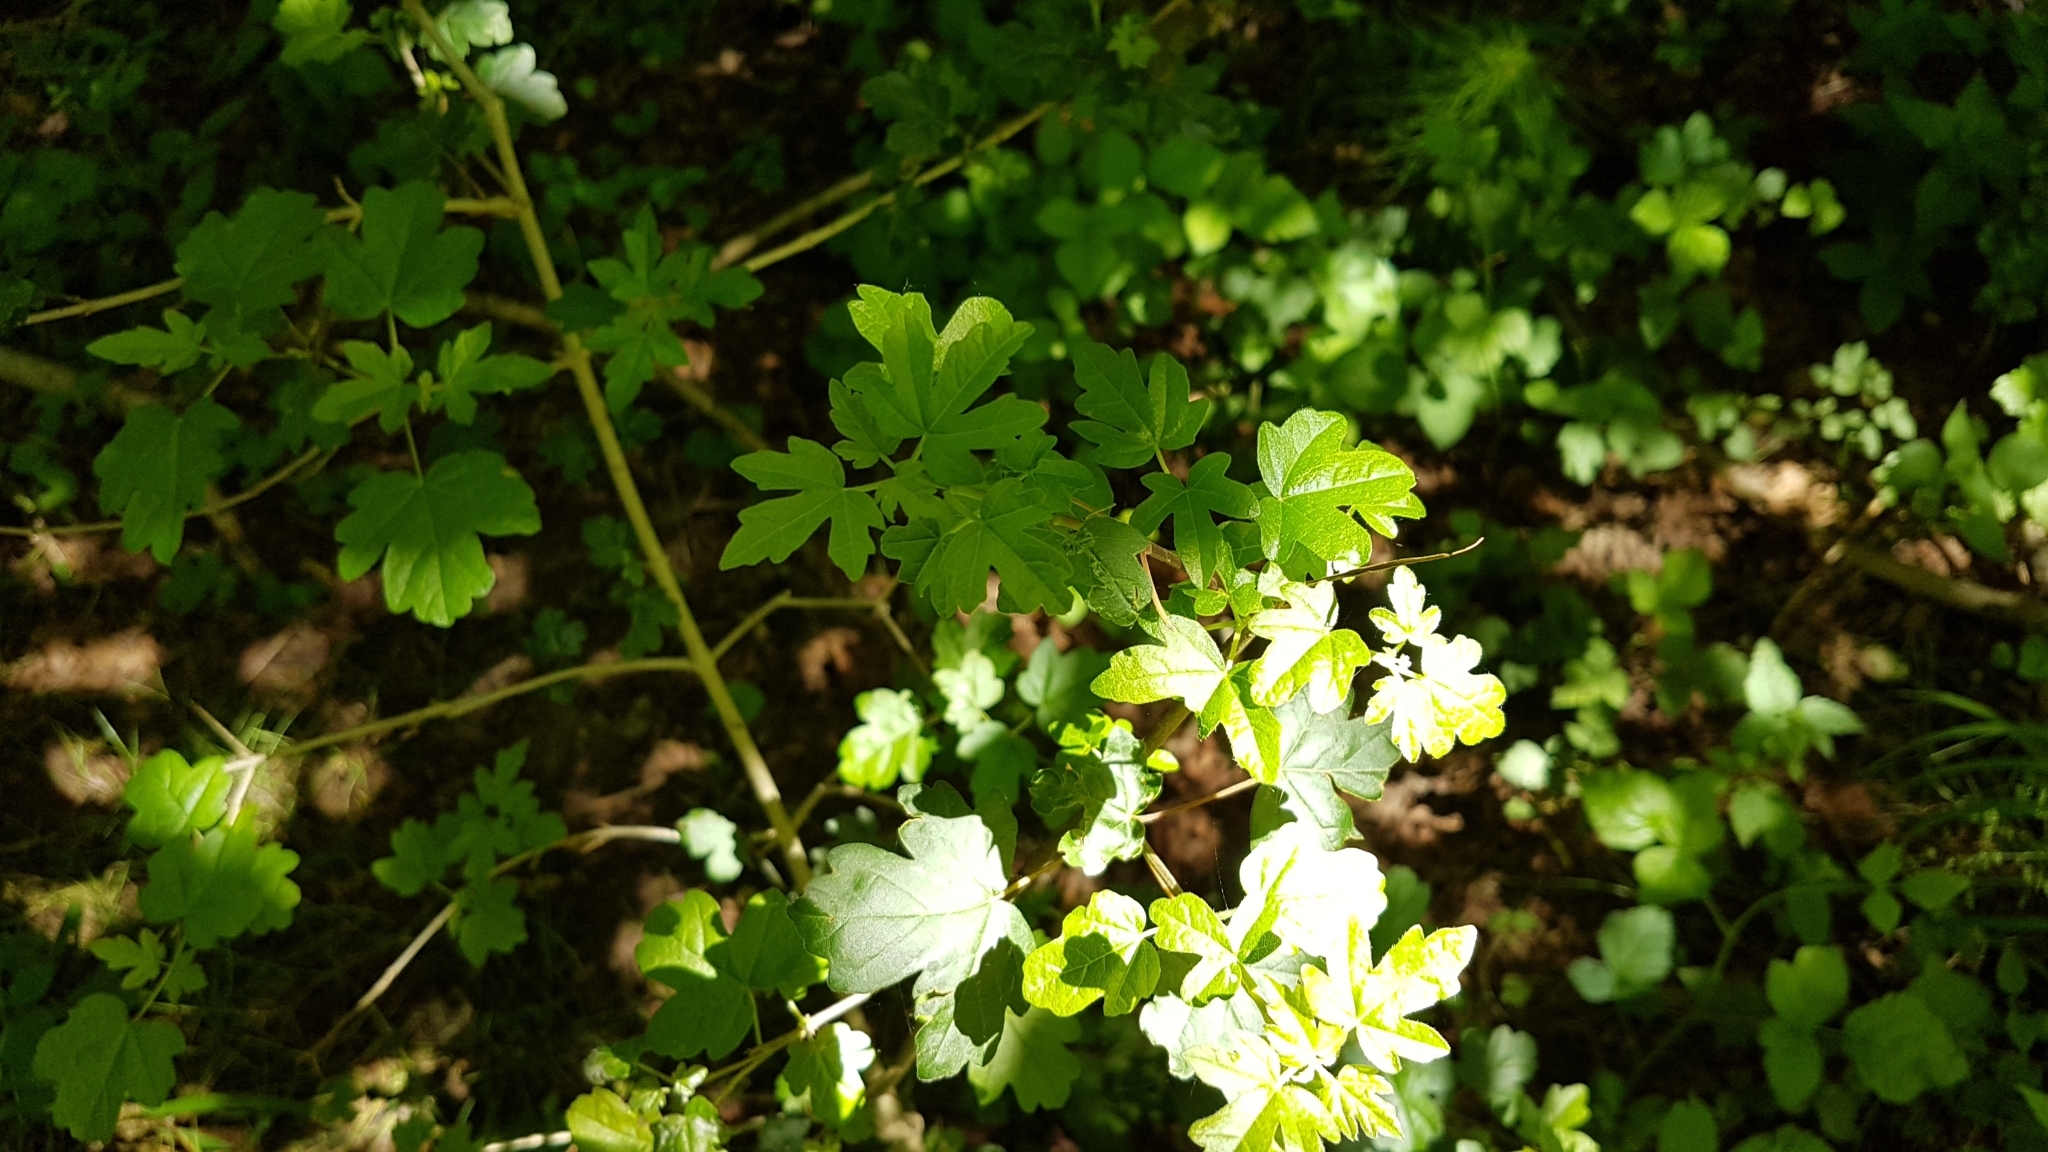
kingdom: Plantae
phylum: Tracheophyta
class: Magnoliopsida
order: Rosales
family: Rosaceae
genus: Crataegus
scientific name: Crataegus monogyna
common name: Hawthorn
